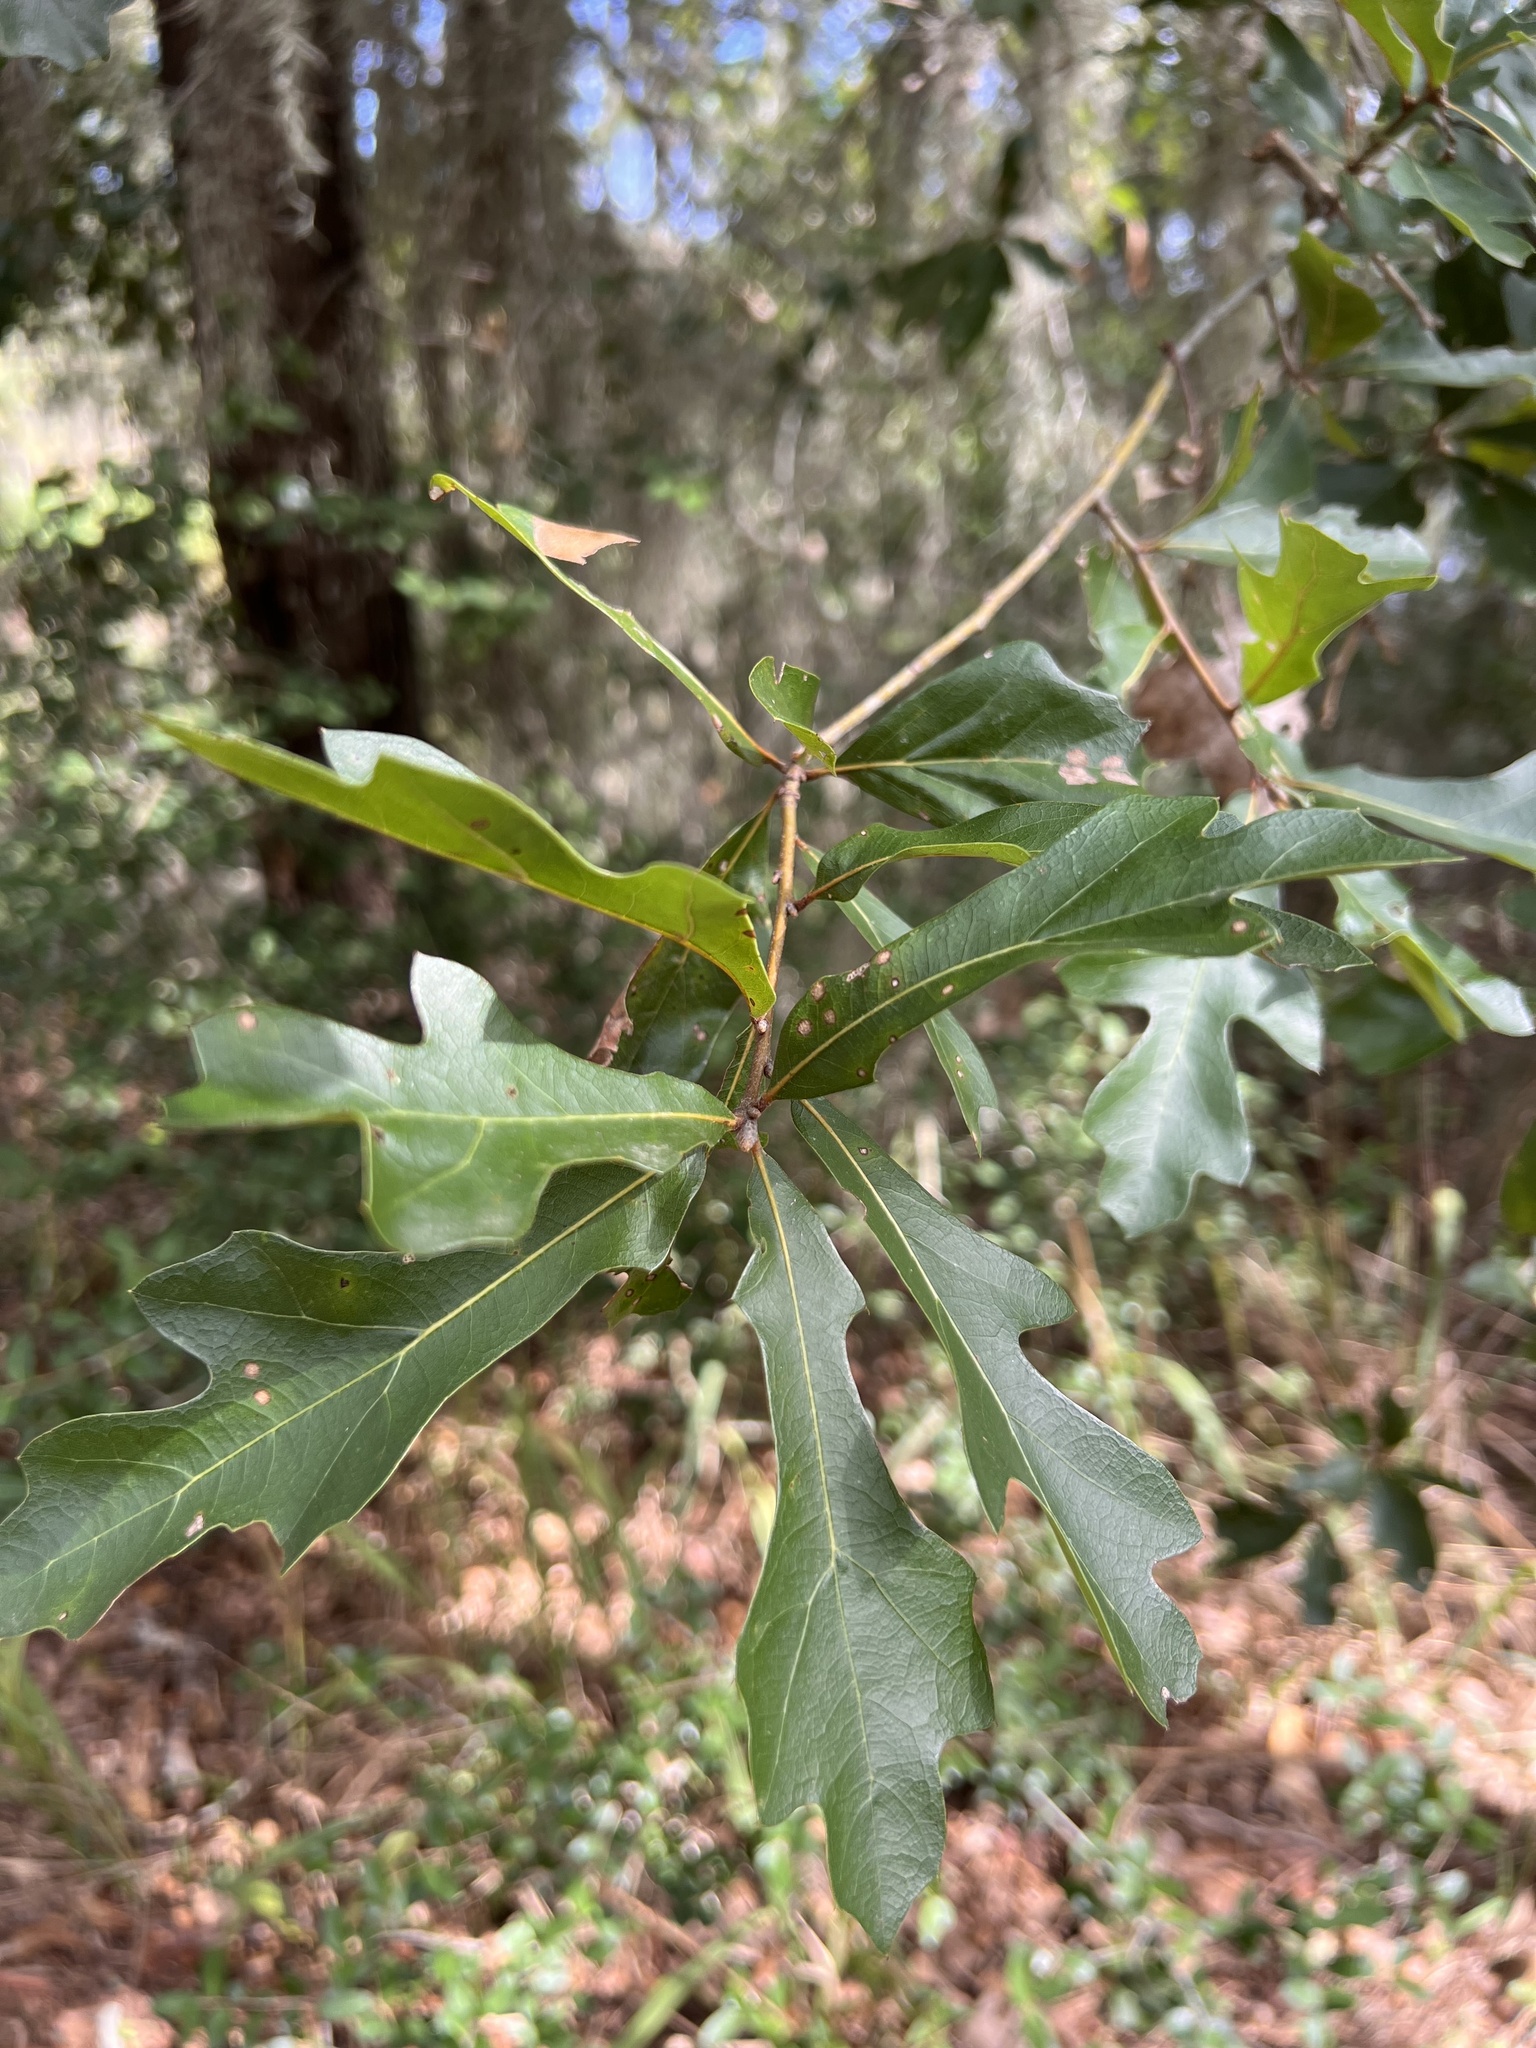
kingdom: Plantae
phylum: Tracheophyta
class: Magnoliopsida
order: Fagales
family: Fagaceae
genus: Quercus
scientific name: Quercus nigra
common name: Water oak
